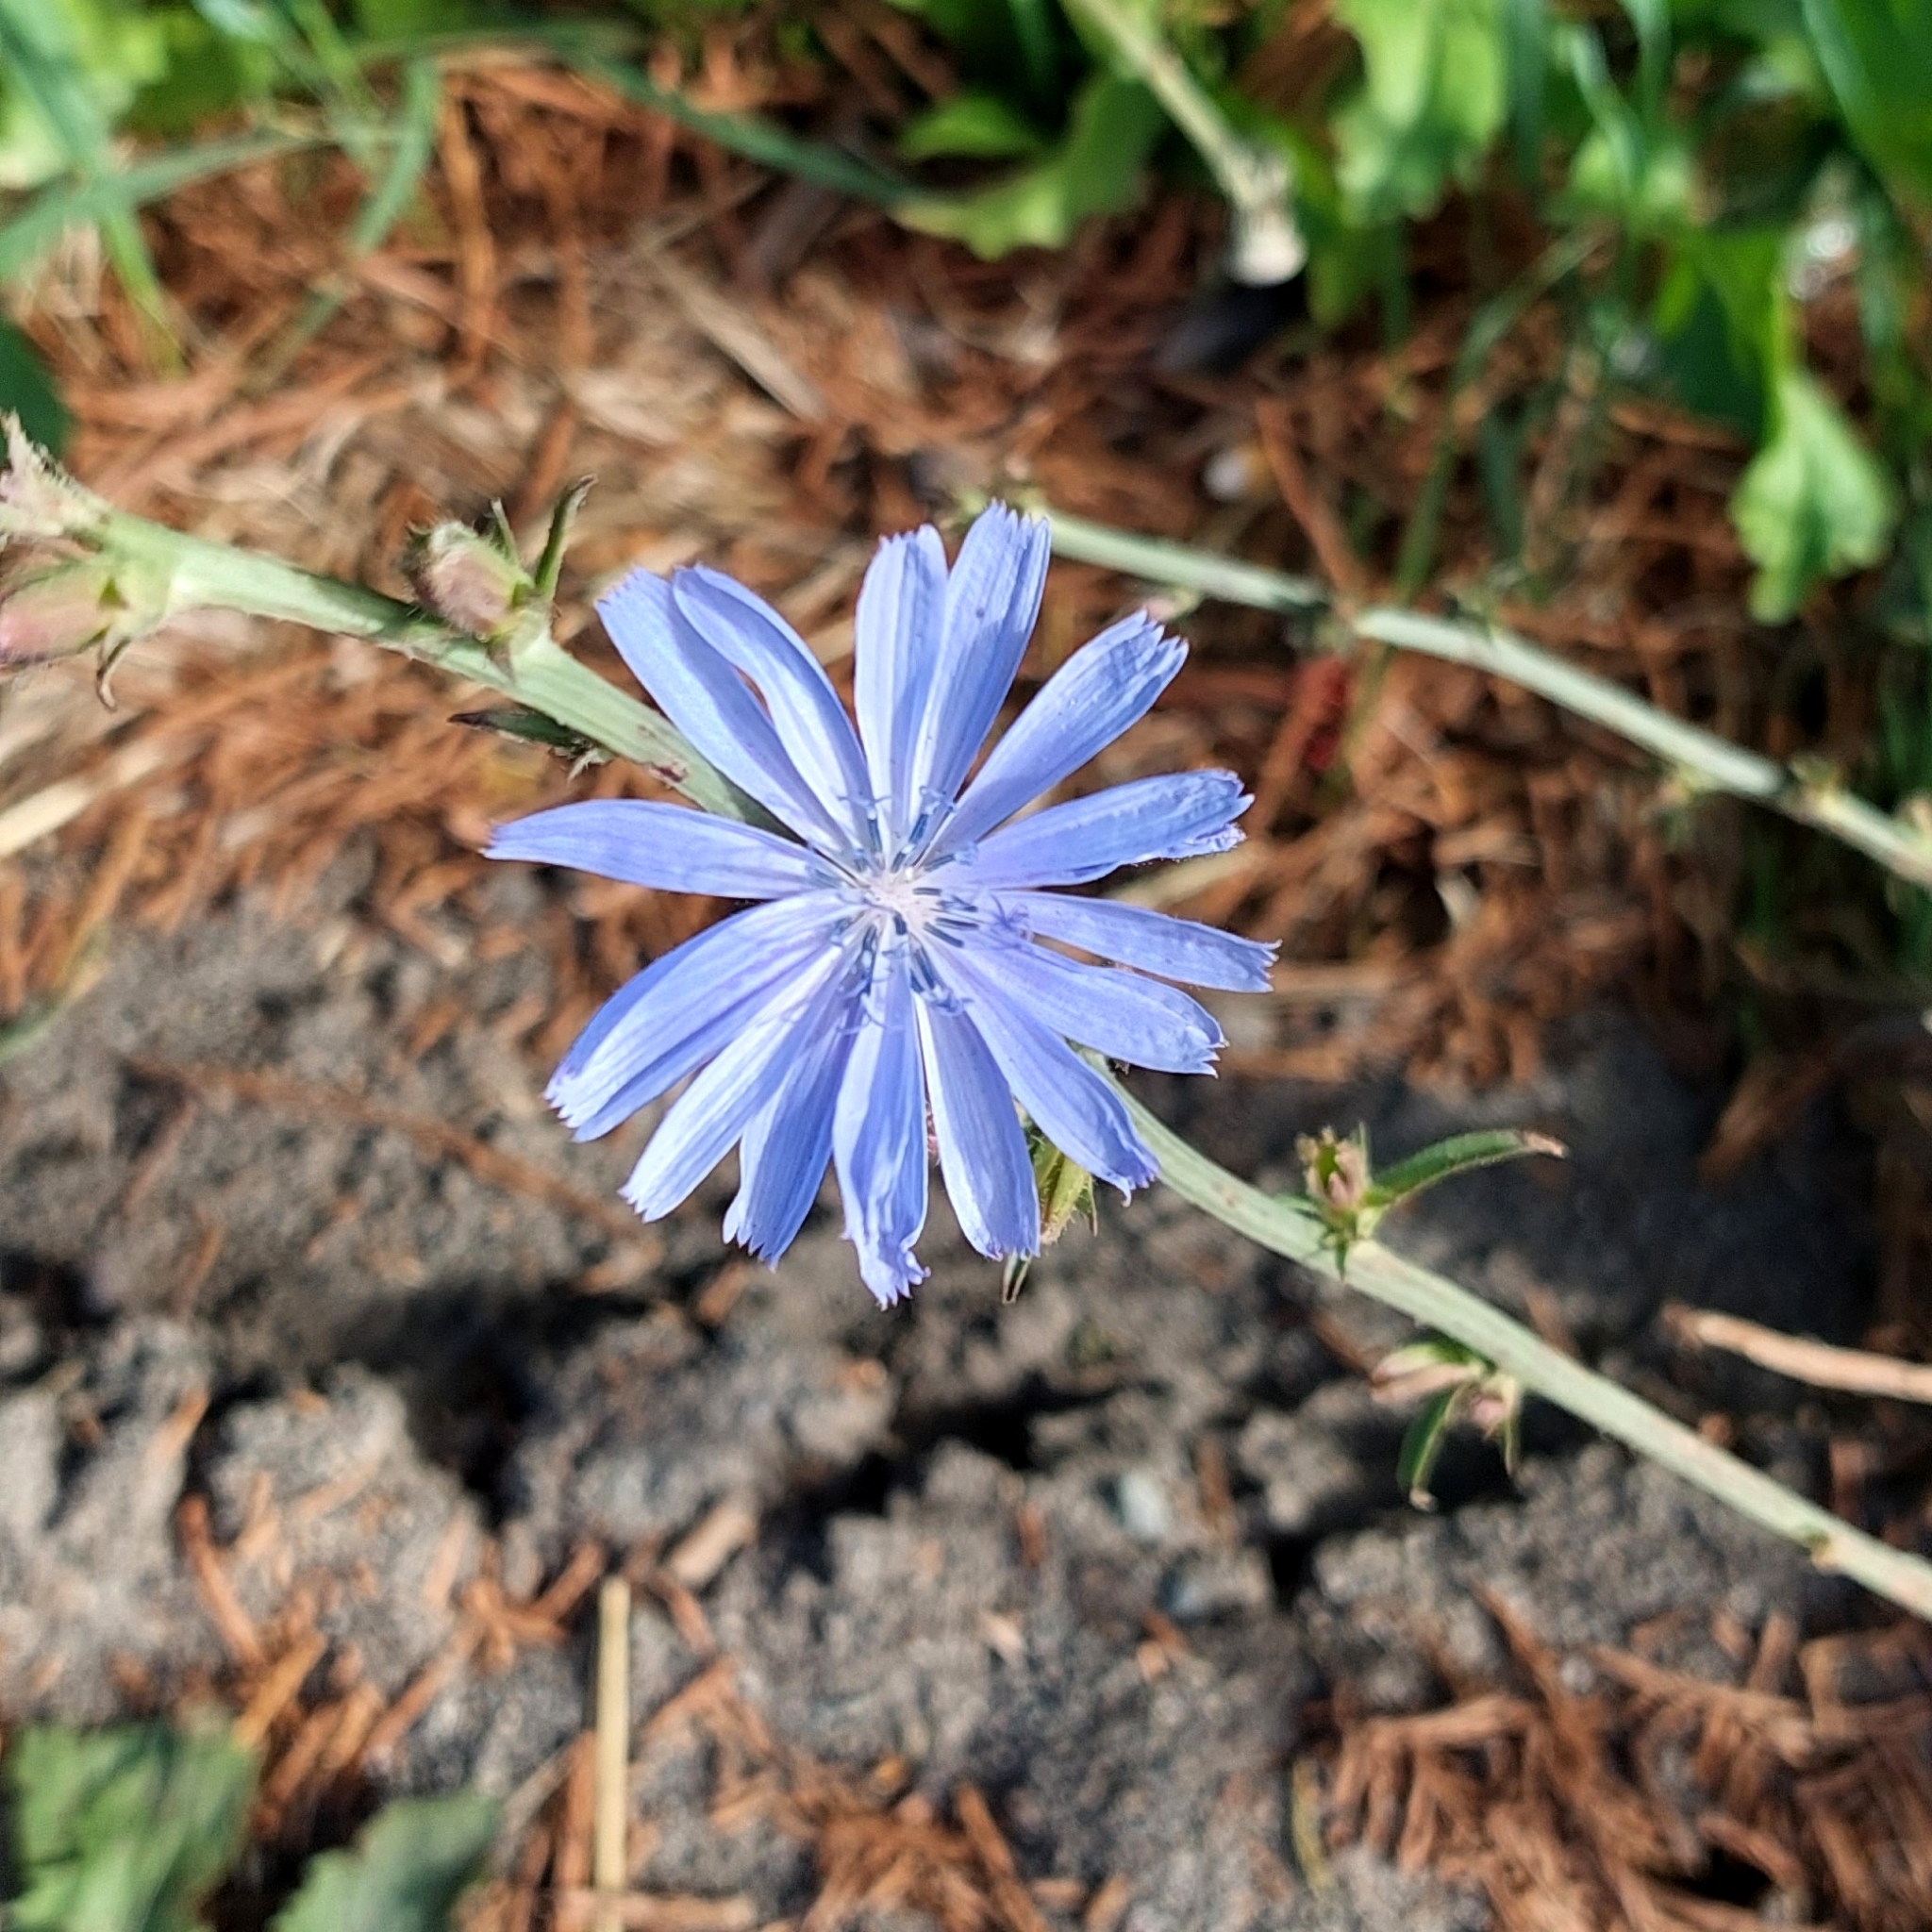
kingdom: Plantae
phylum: Tracheophyta
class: Magnoliopsida
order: Asterales
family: Asteraceae
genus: Cichorium
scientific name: Cichorium intybus
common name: Chicory
